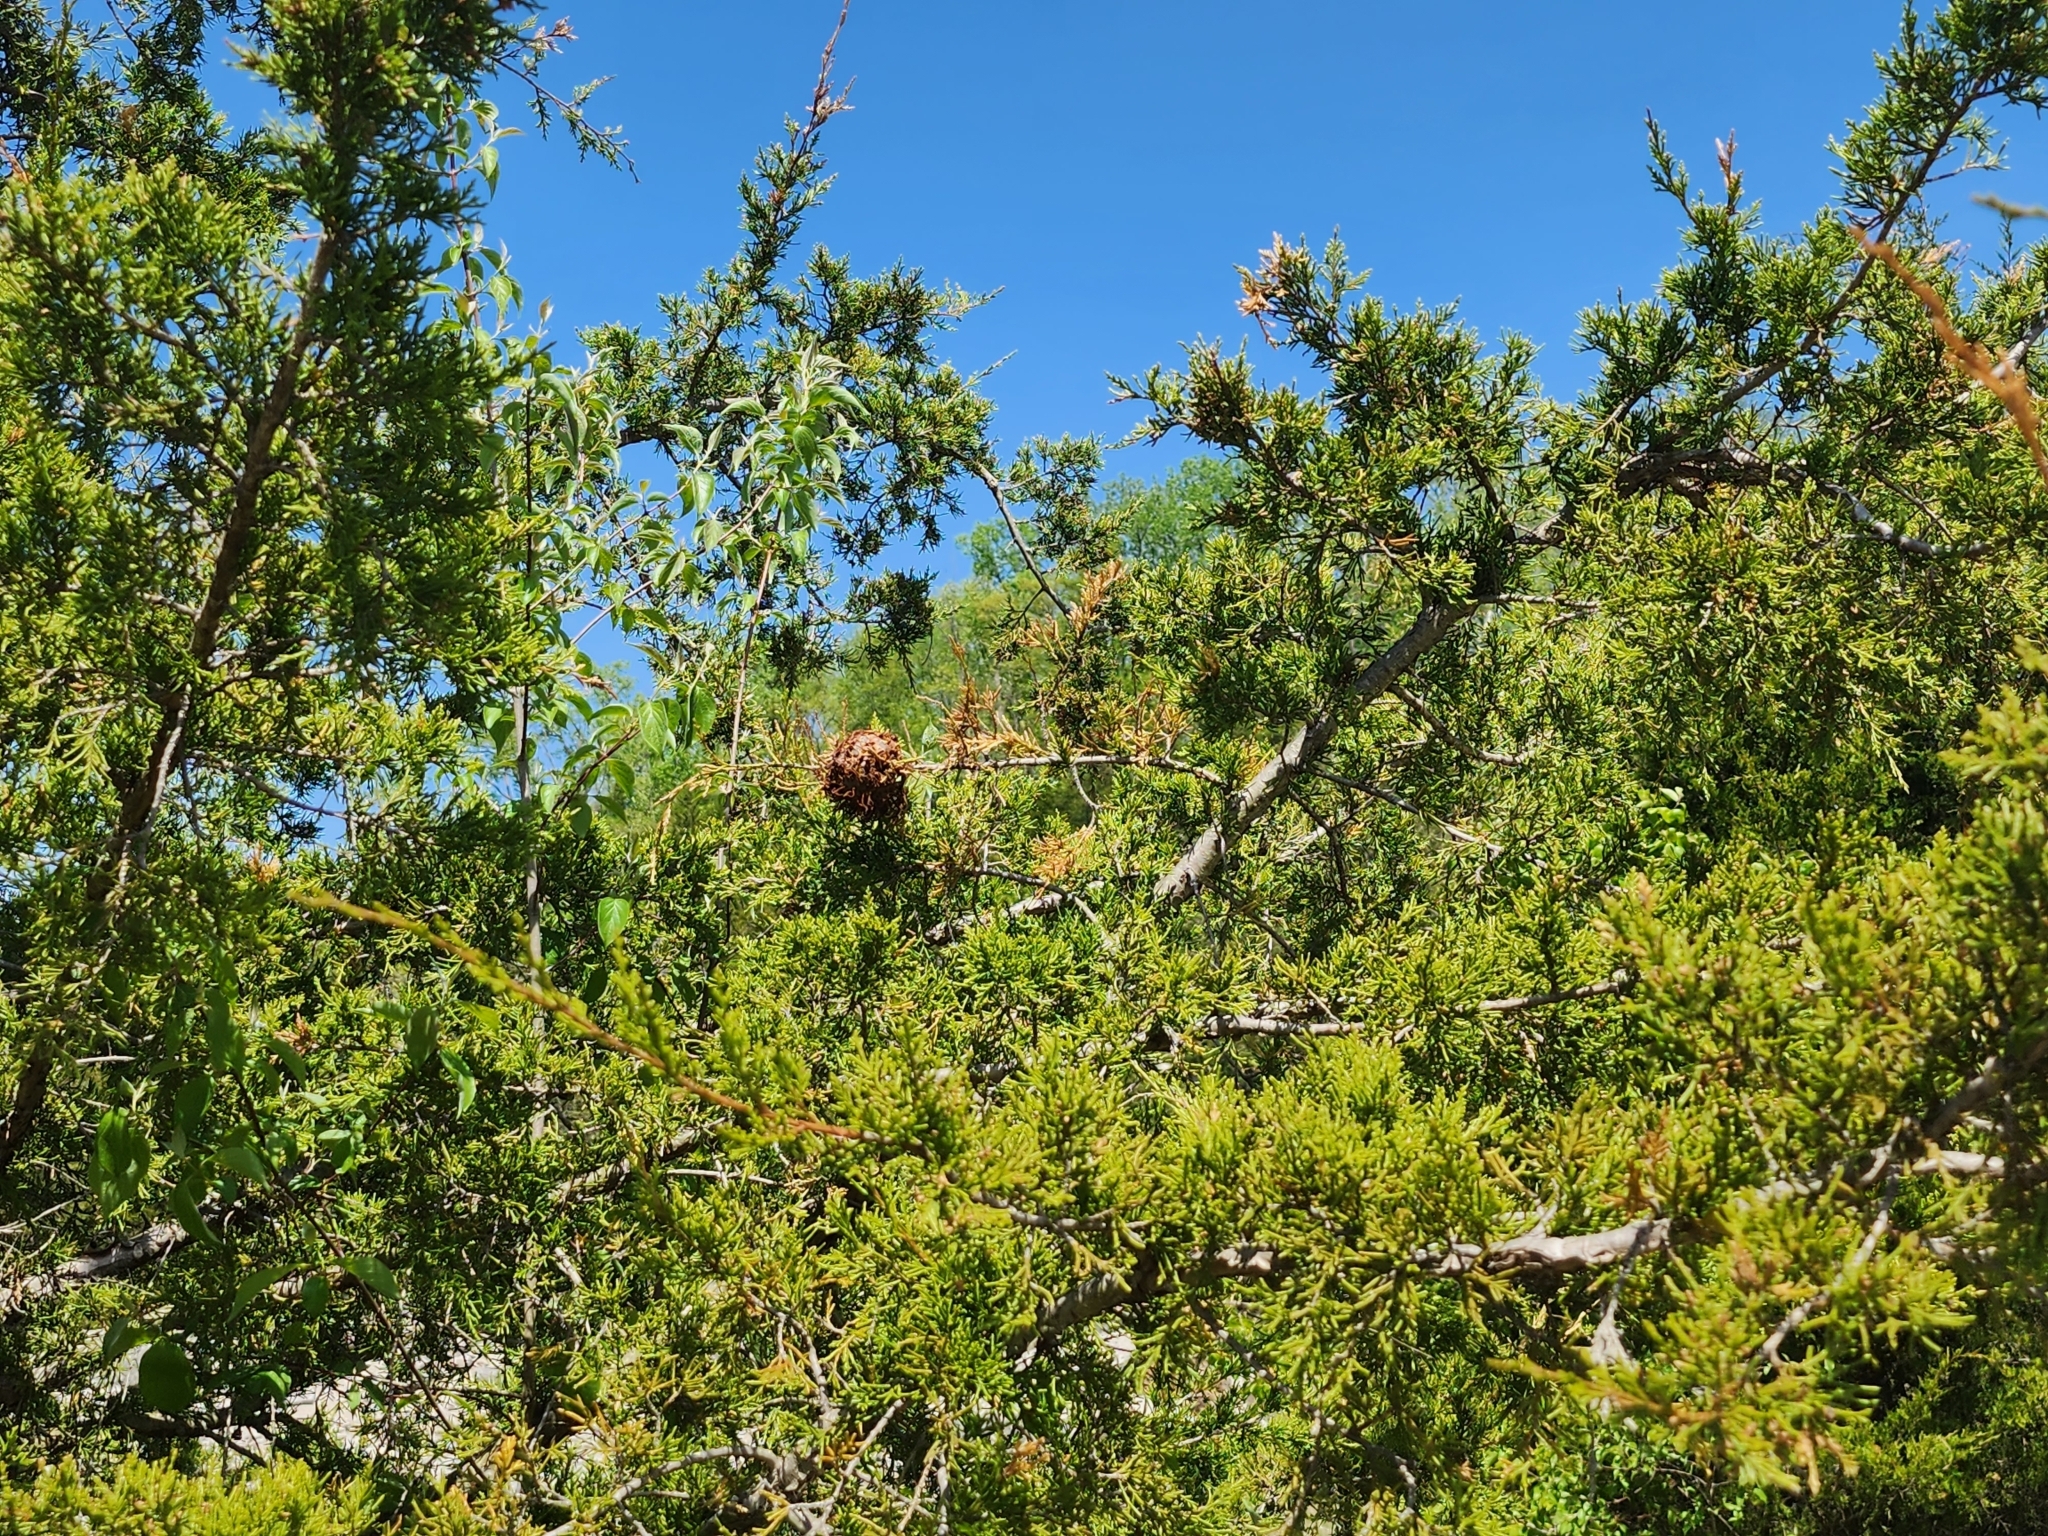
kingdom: Fungi
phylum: Basidiomycota
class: Pucciniomycetes
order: Pucciniales
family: Gymnosporangiaceae
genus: Gymnosporangium
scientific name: Gymnosporangium juniperi-virginianae
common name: Juniper-apple rust
